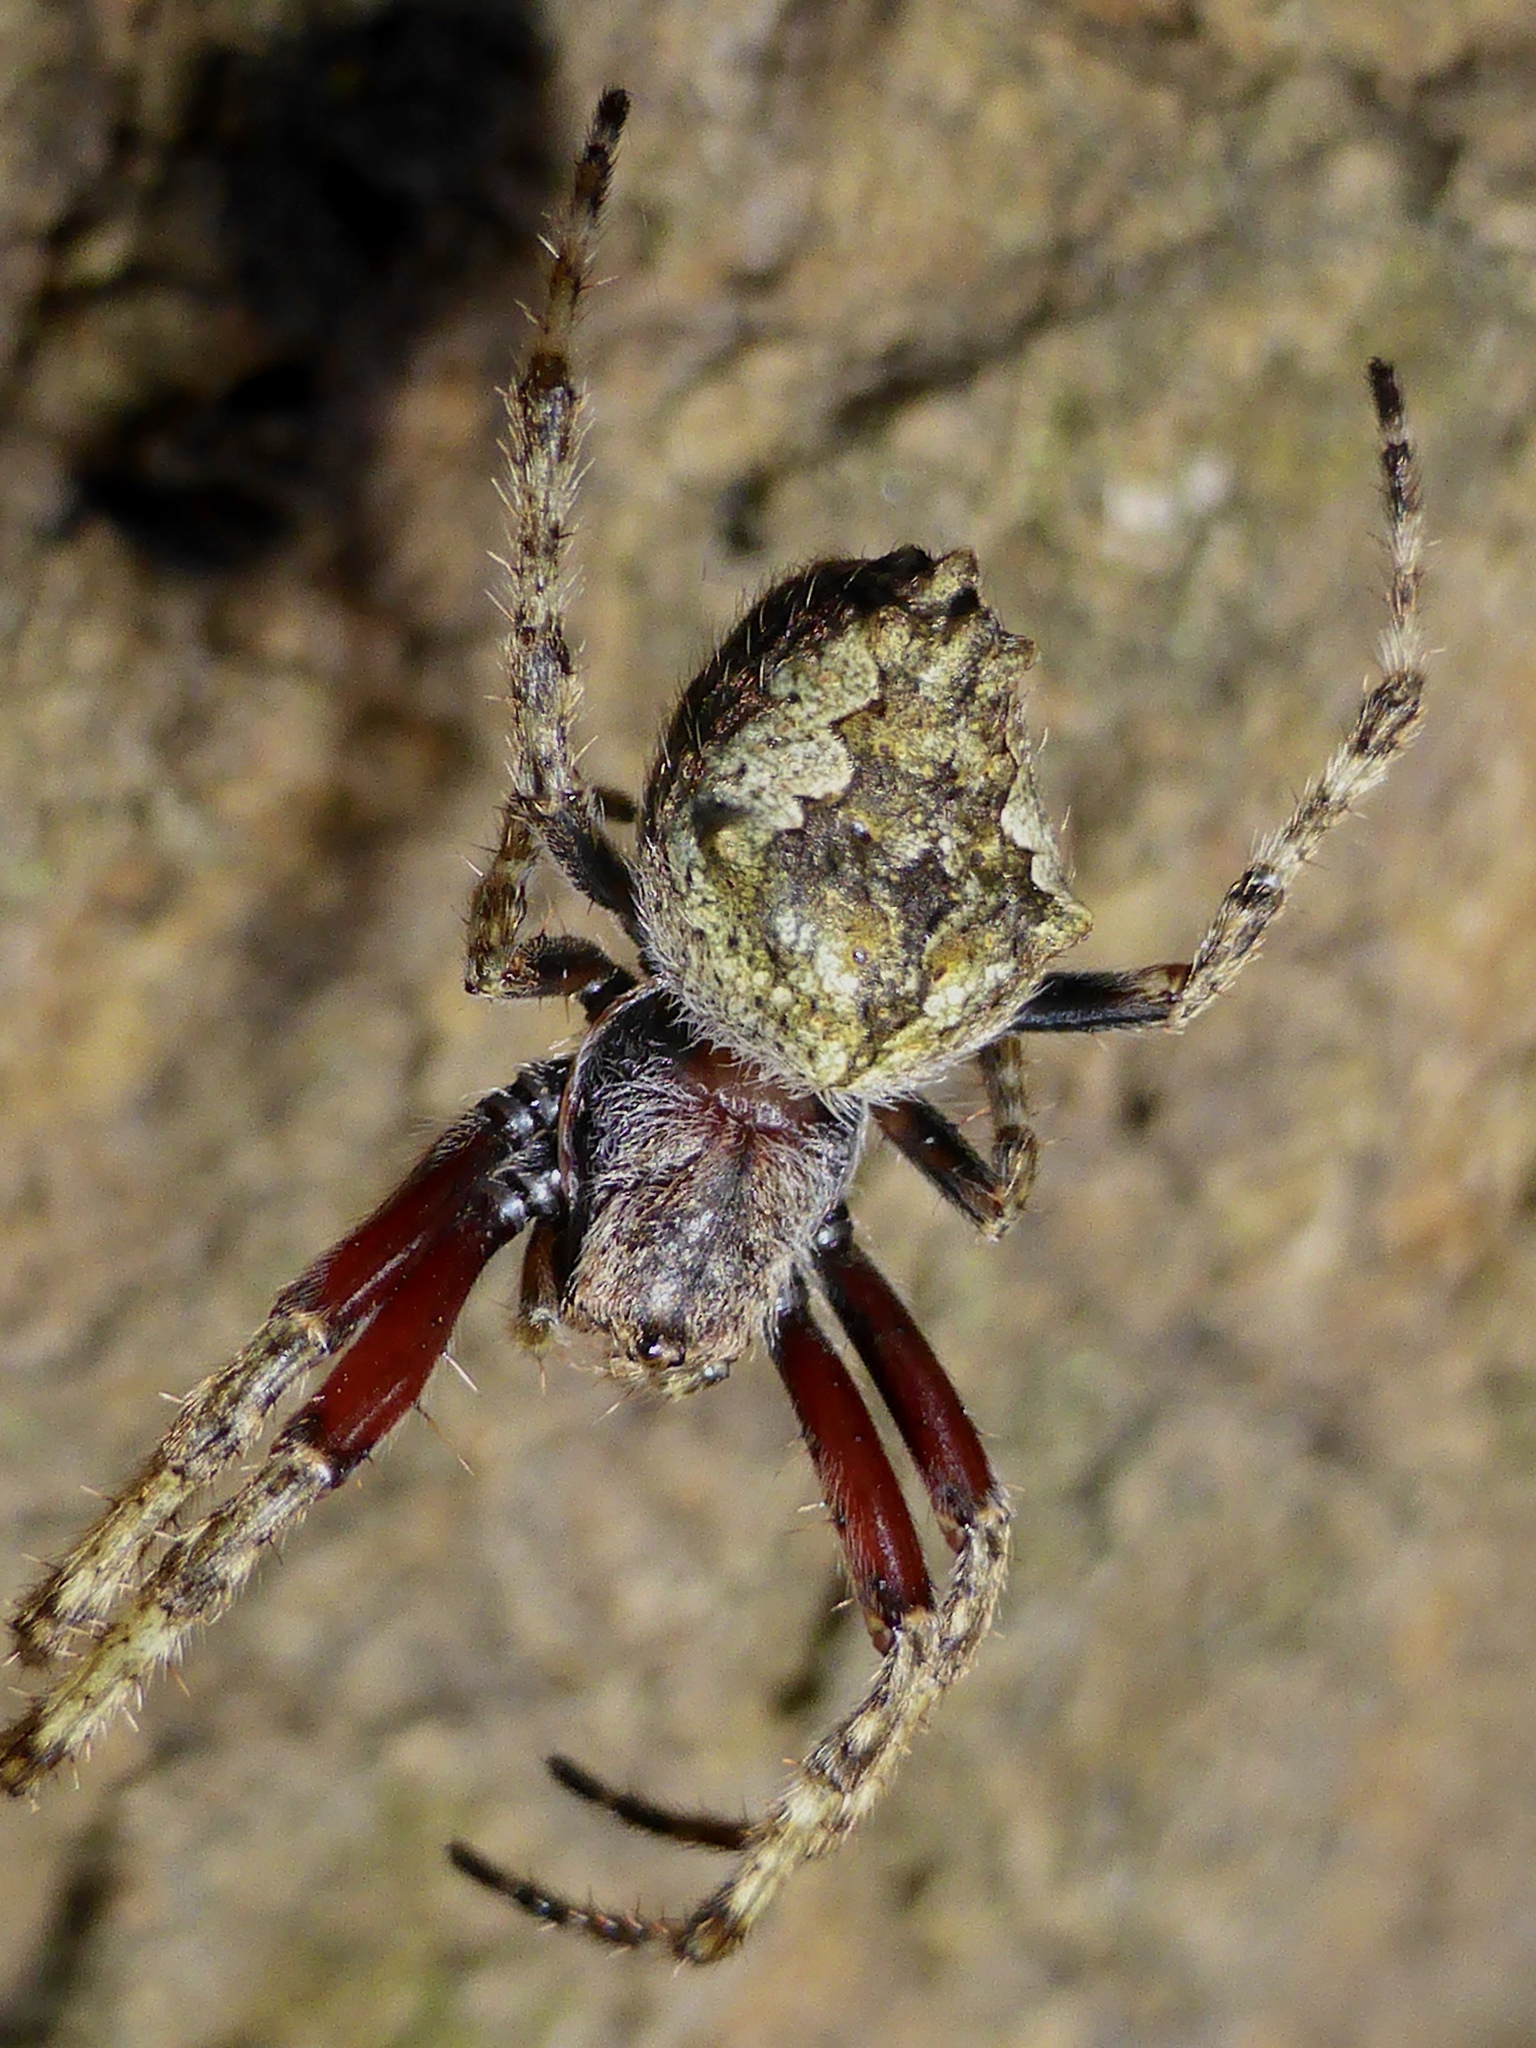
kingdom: Animalia
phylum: Arthropoda
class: Arachnida
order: Araneae
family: Araneidae
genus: Eriophora
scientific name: Eriophora pustulosa
